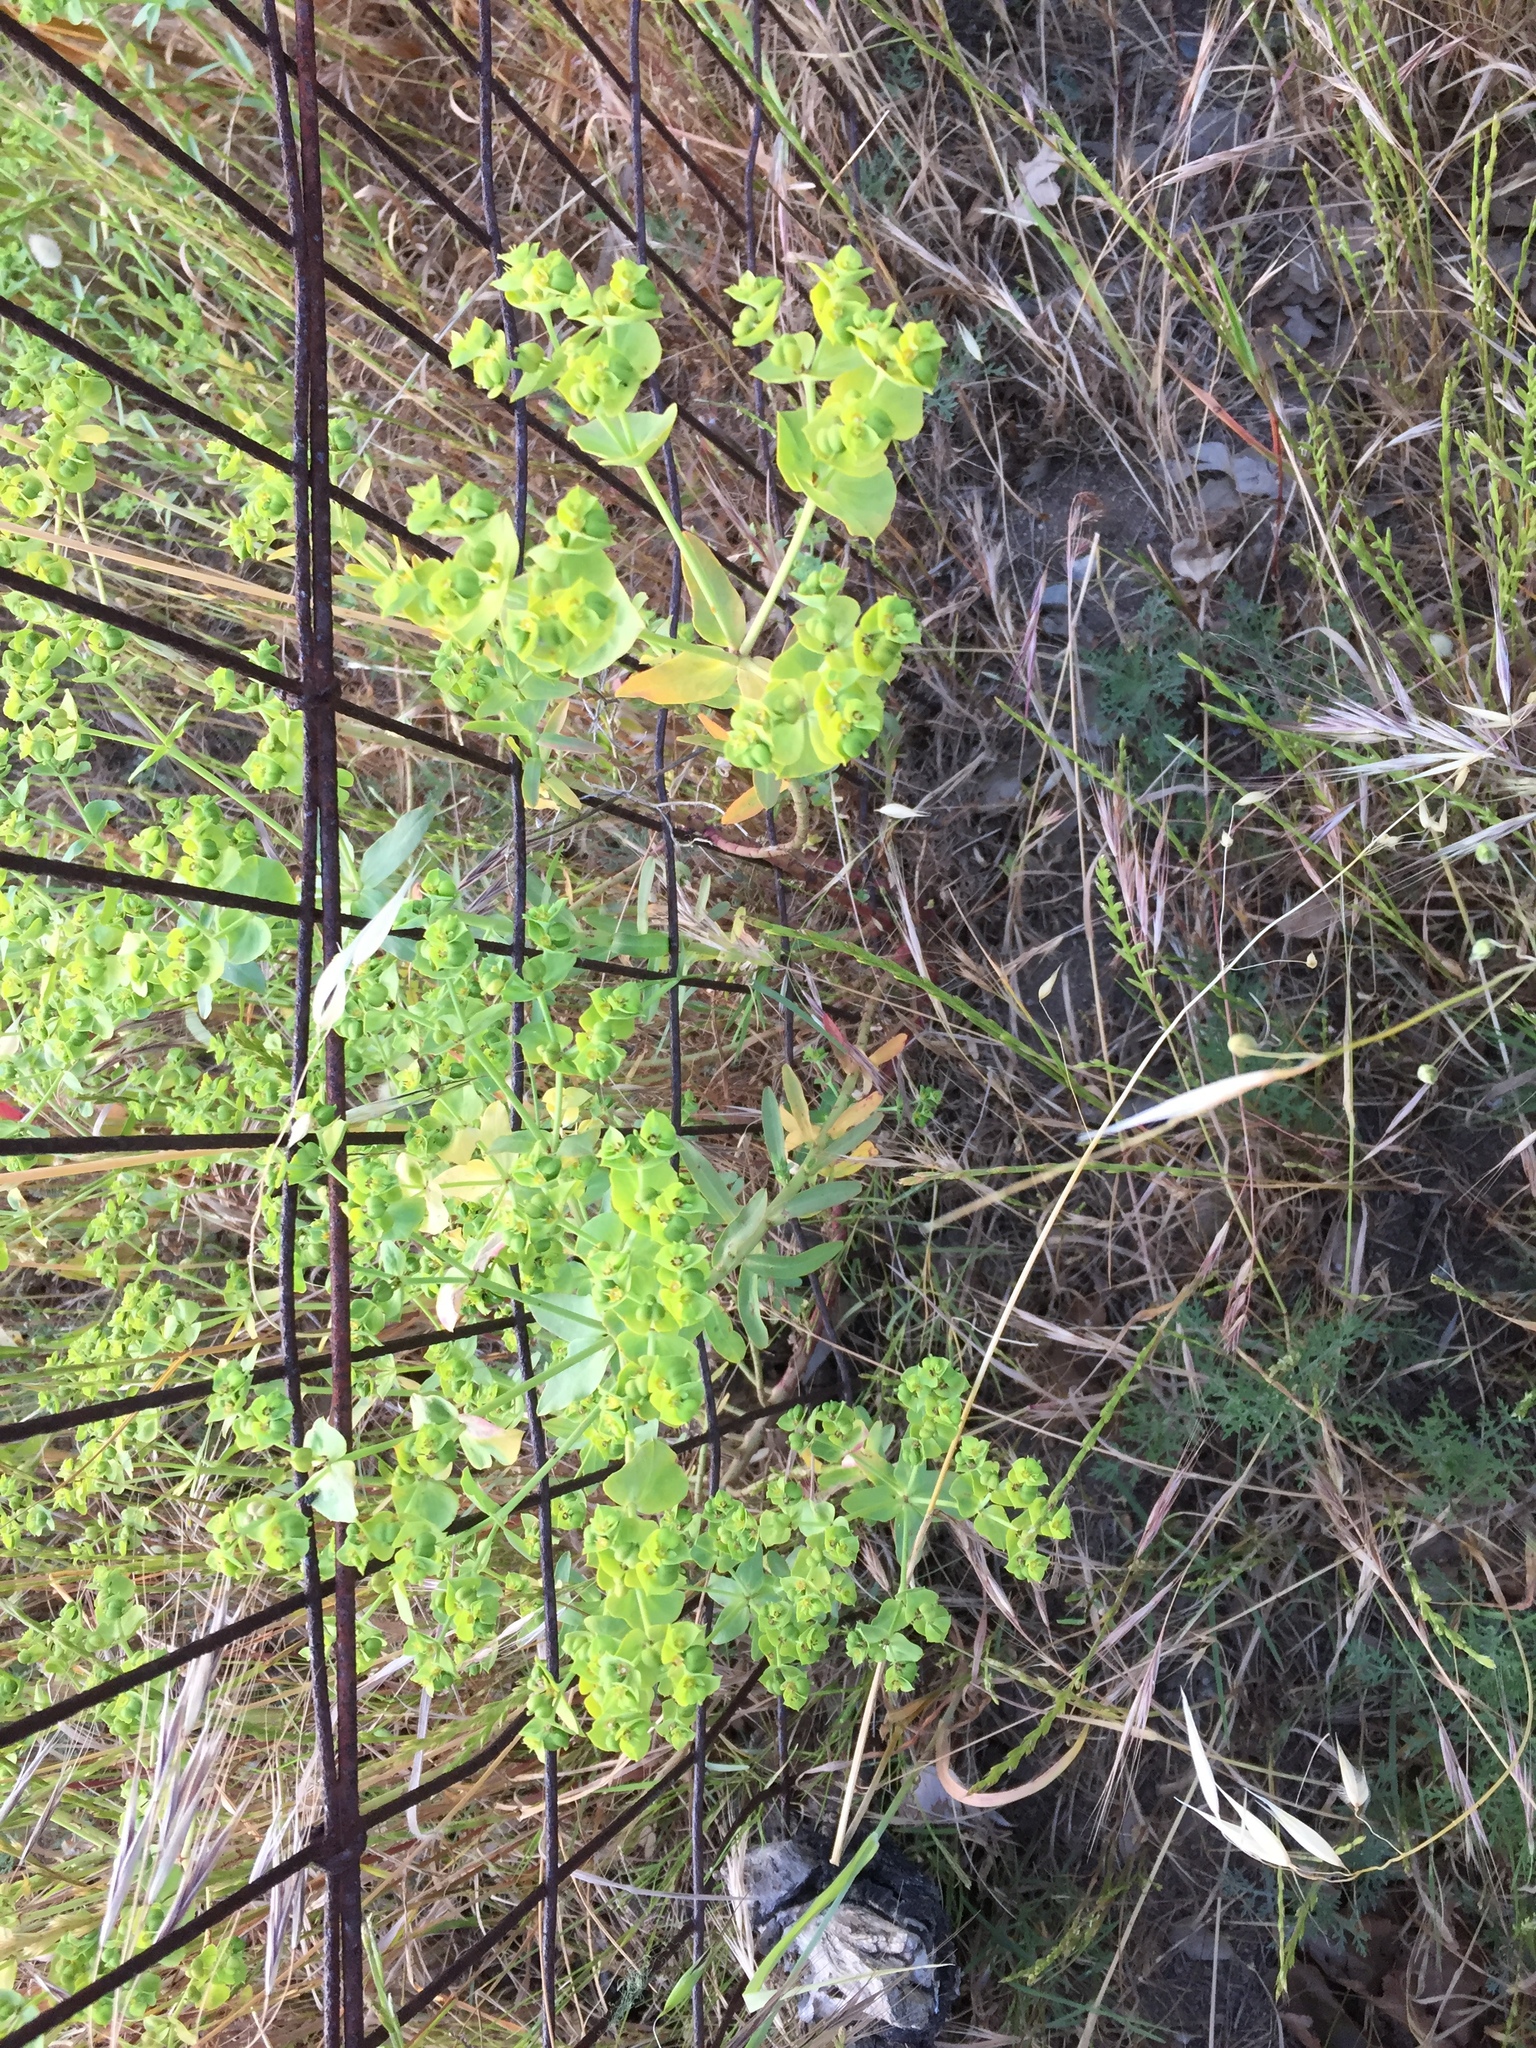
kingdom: Plantae
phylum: Tracheophyta
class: Magnoliopsida
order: Malpighiales
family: Euphorbiaceae
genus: Euphorbia
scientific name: Euphorbia terracina
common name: Geraldton carnation weed
